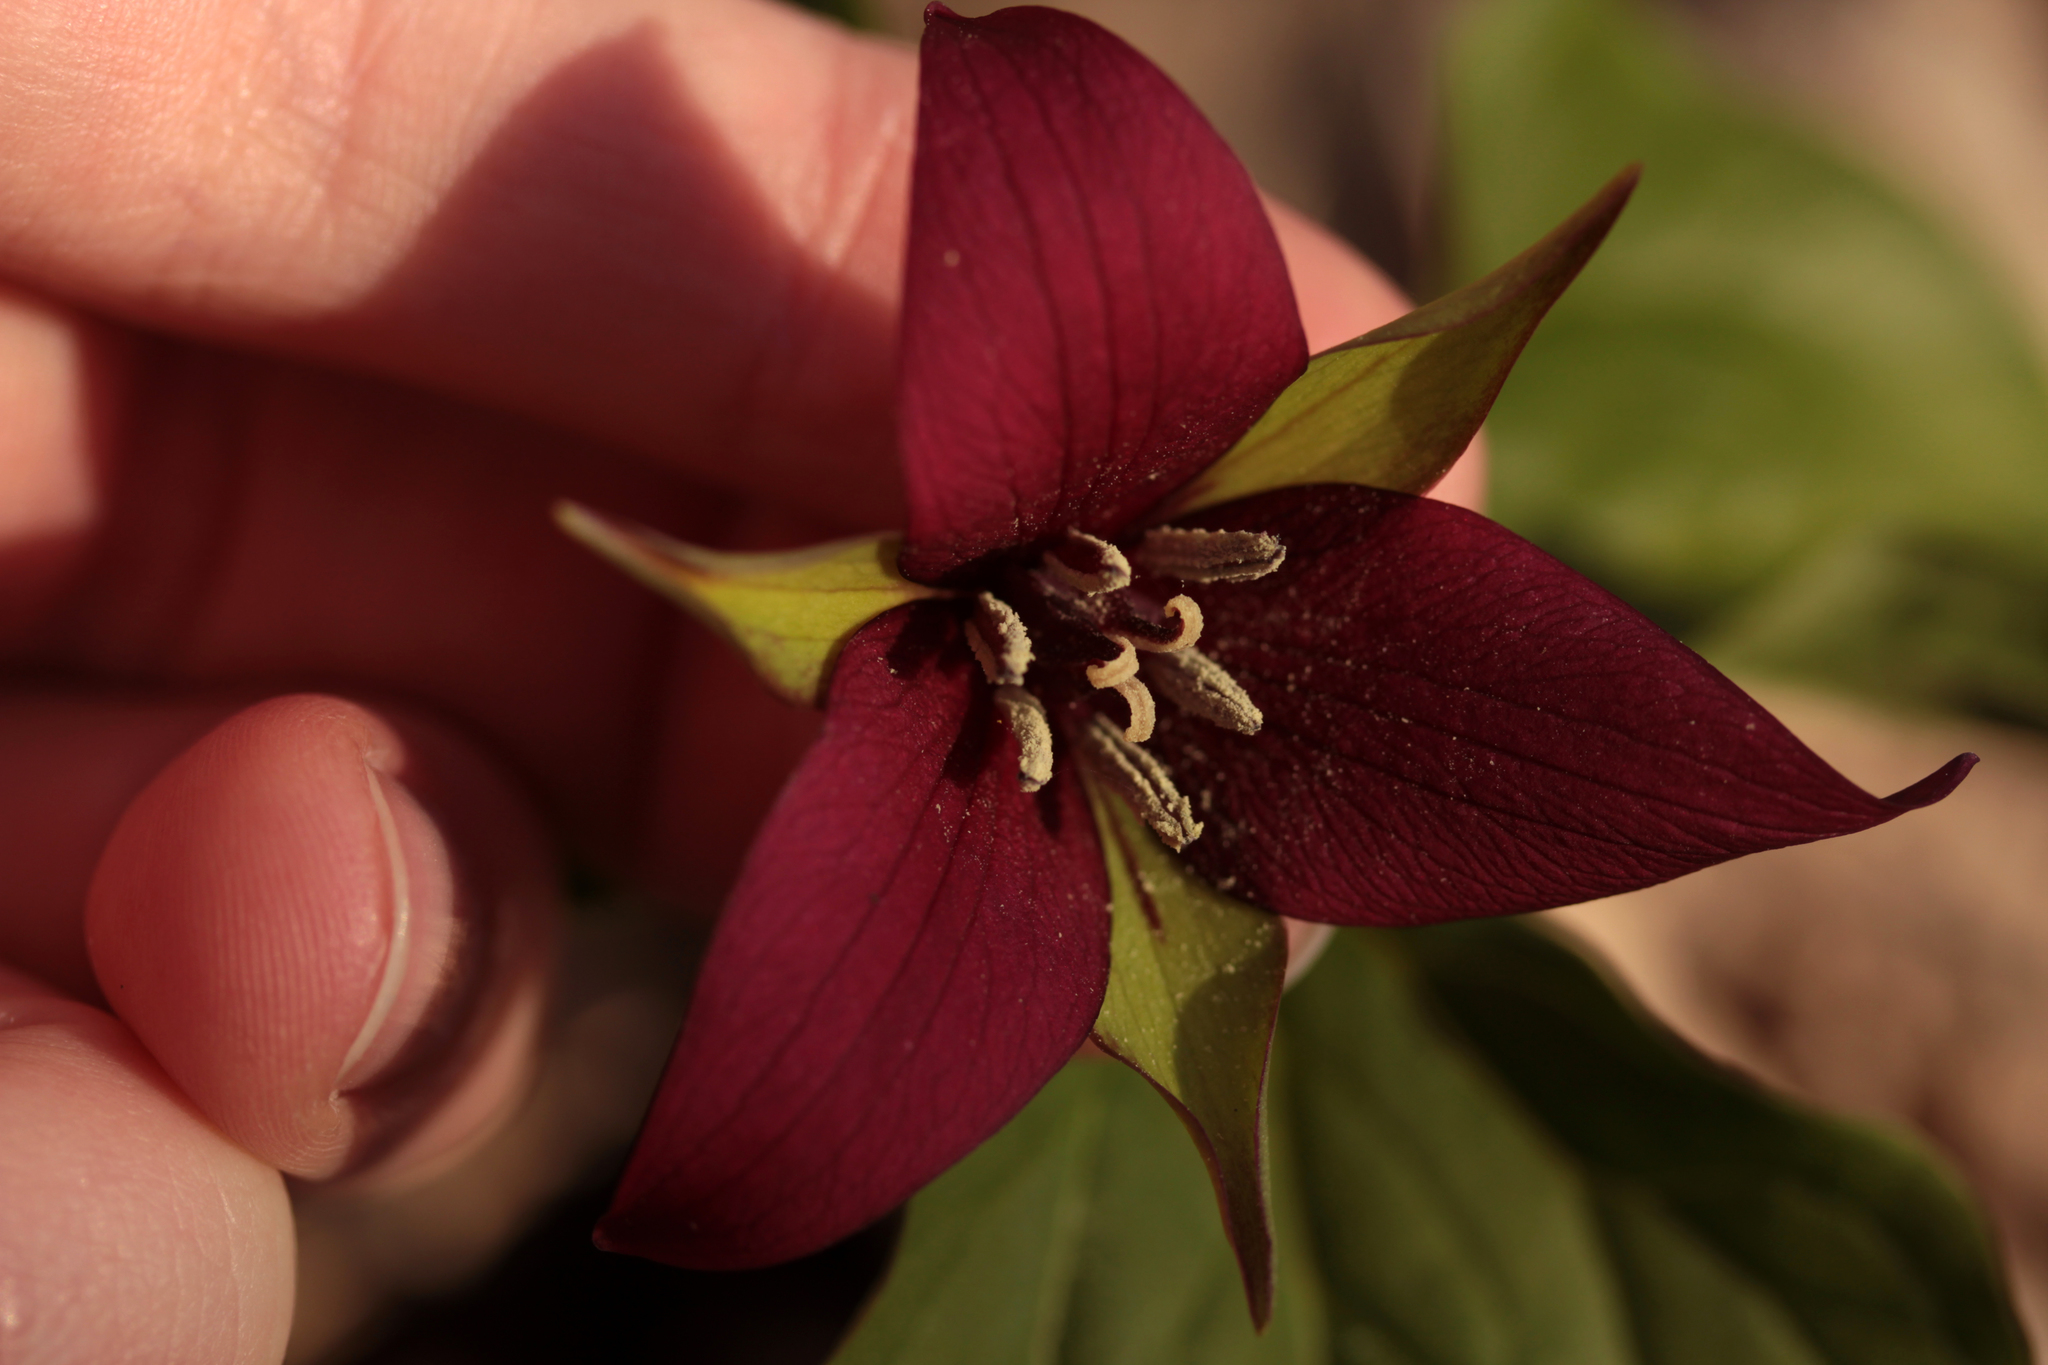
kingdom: Plantae
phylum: Tracheophyta
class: Liliopsida
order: Liliales
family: Melanthiaceae
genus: Trillium
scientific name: Trillium erectum
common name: Purple trillium
